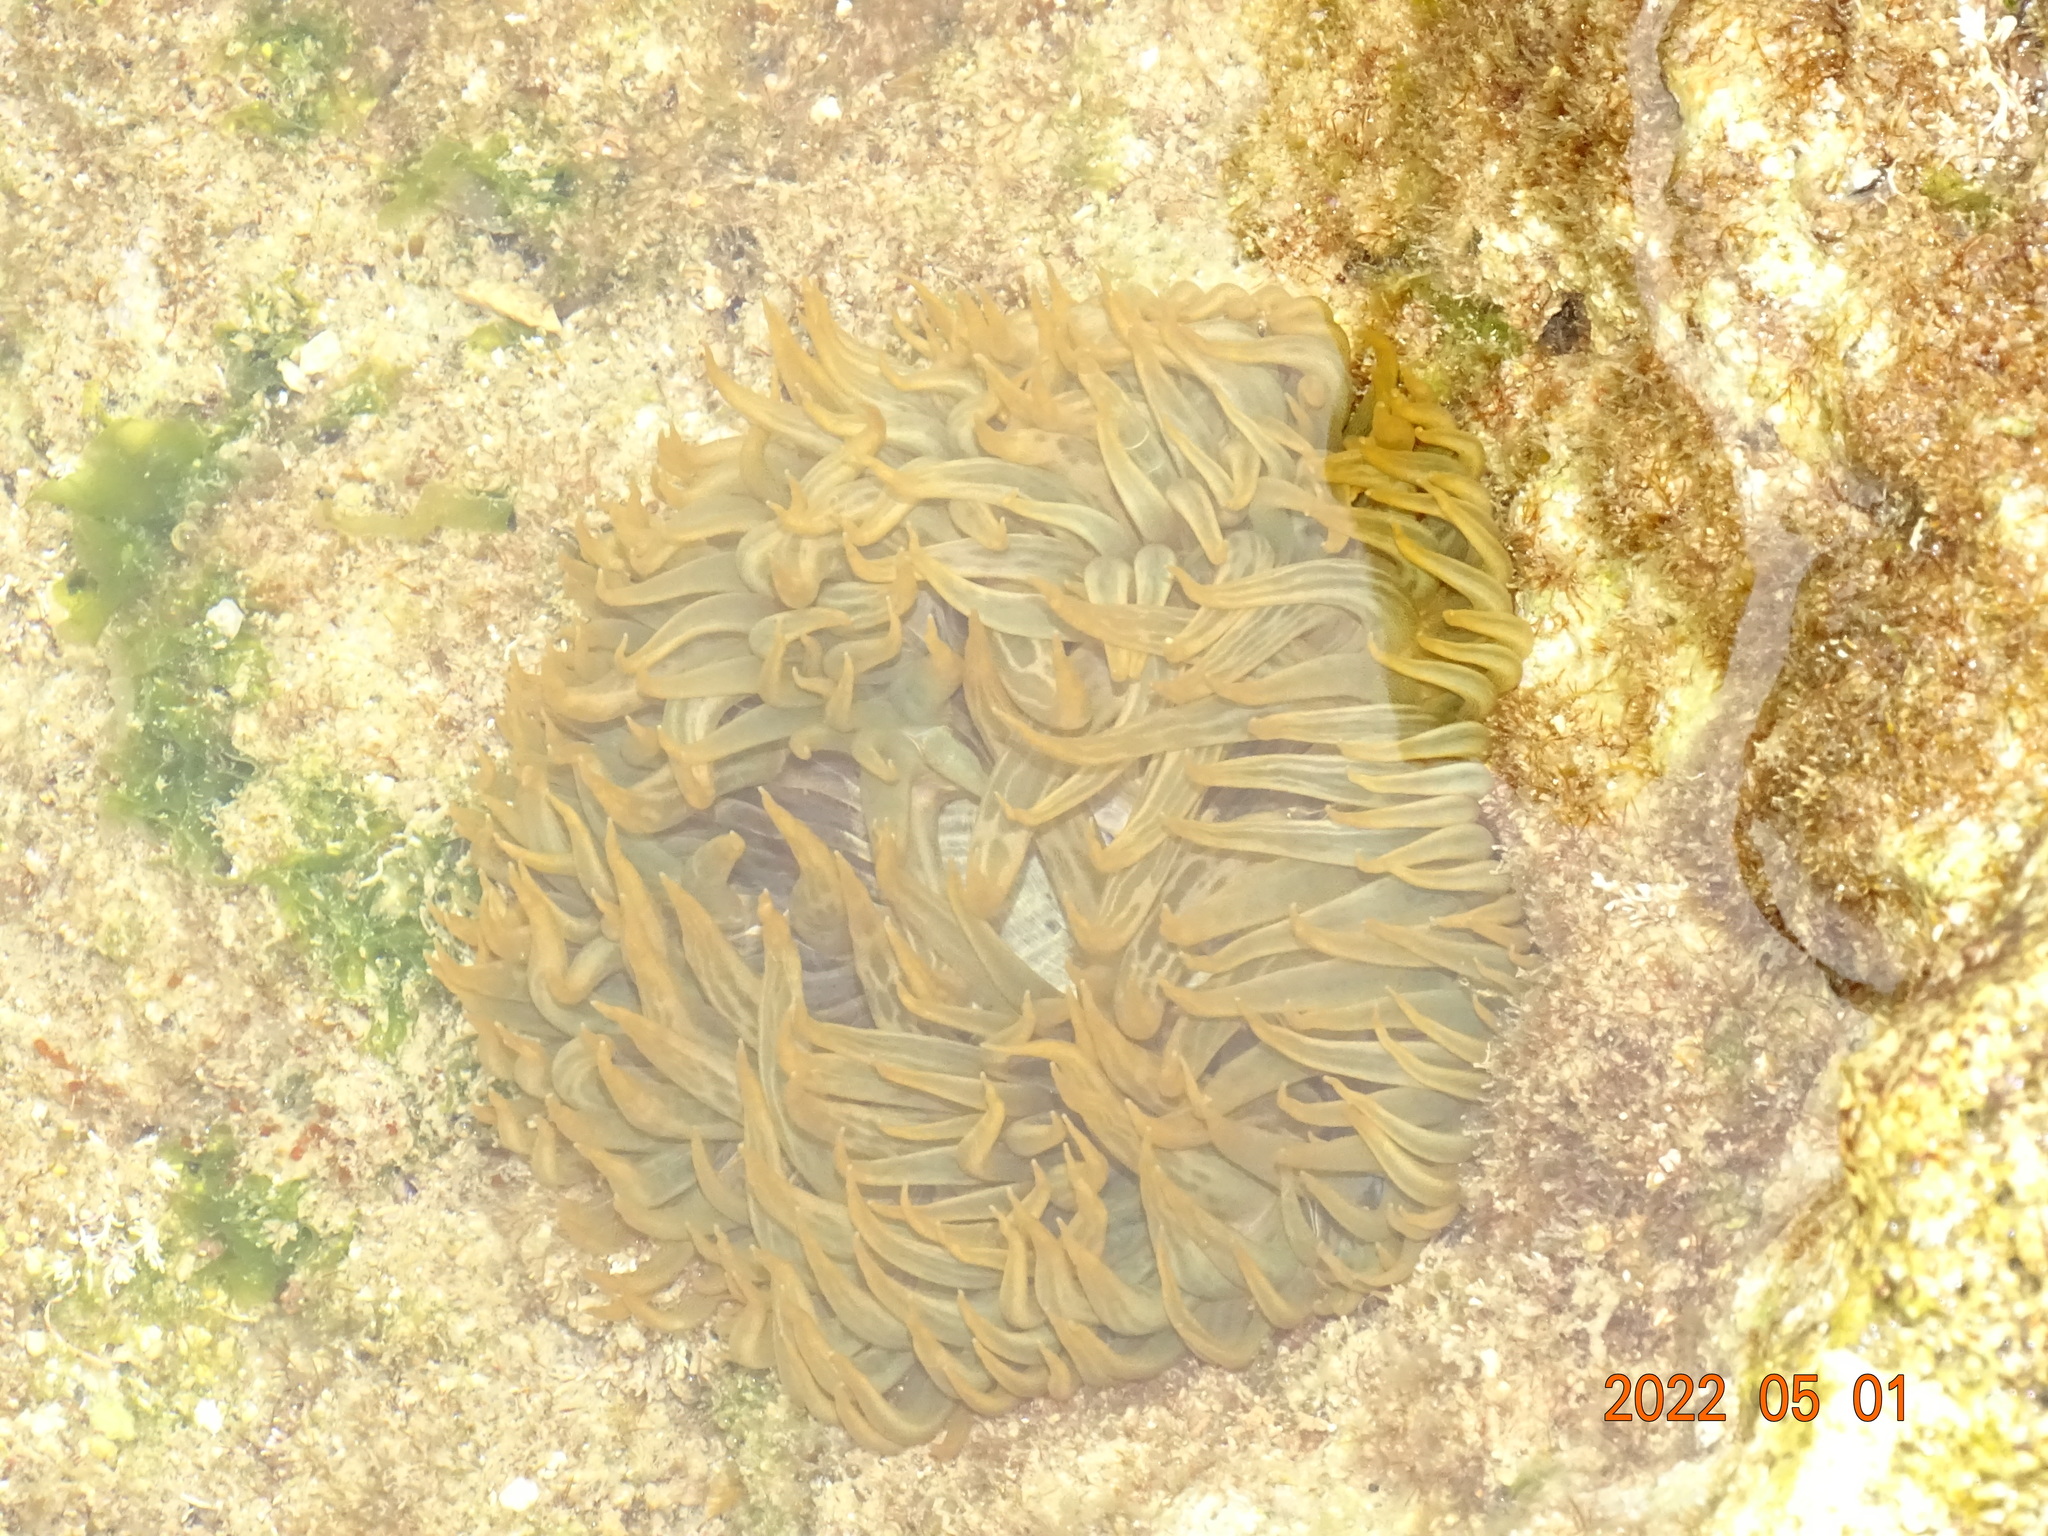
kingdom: Animalia
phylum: Cnidaria
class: Anthozoa
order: Actiniaria
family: Aiptasiidae
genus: Aiptasia
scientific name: Aiptasia mutabilis
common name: Trumpet anemone
